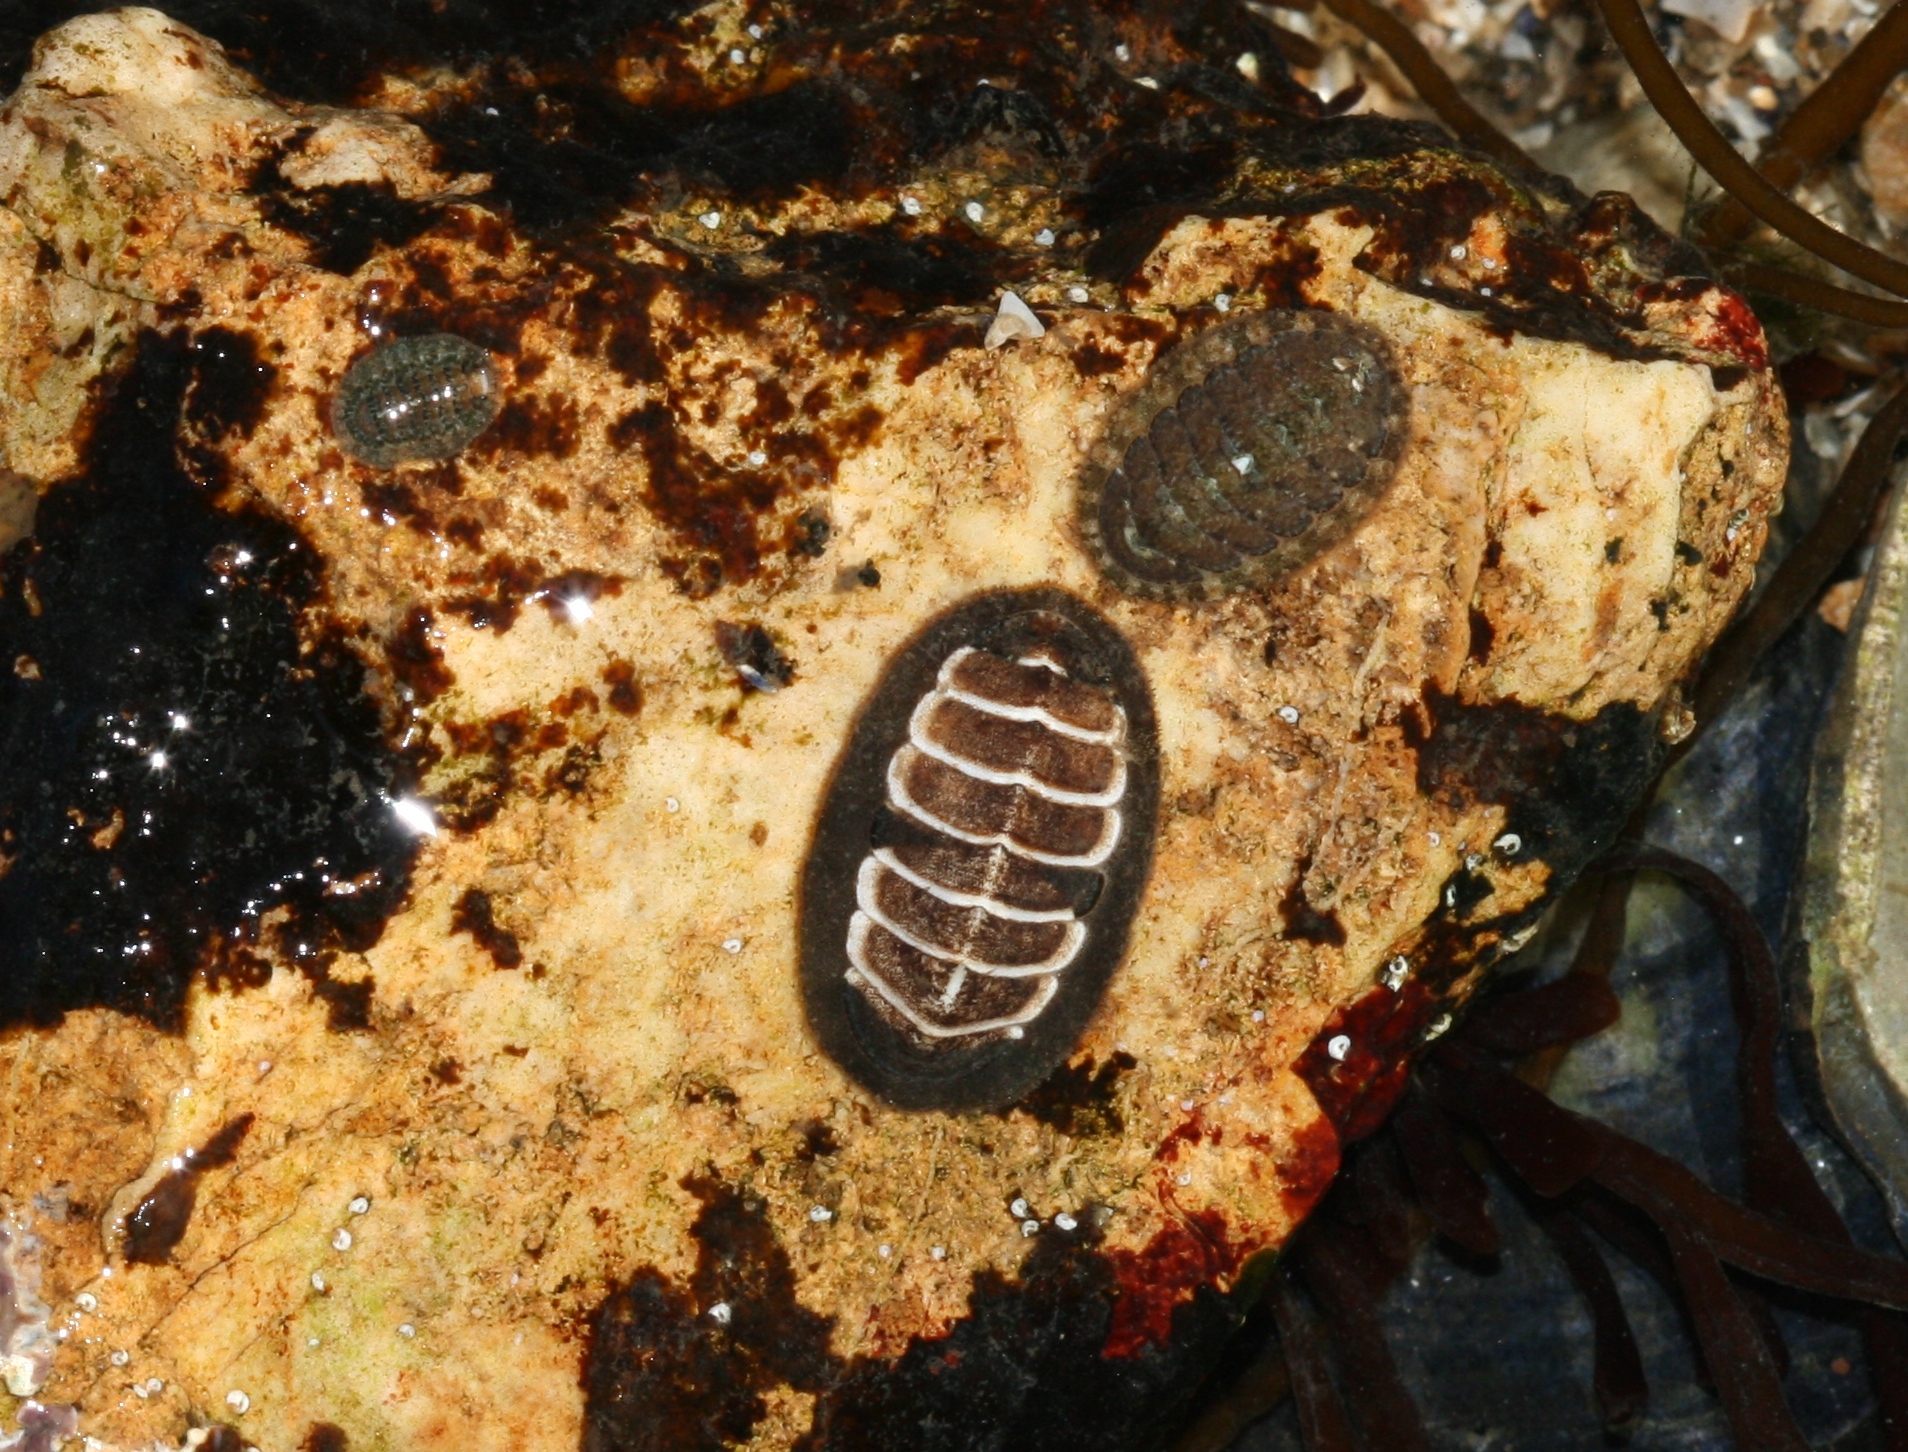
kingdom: Animalia
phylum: Mollusca
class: Polyplacophora
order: Chitonida
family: Tonicellidae
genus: Lepidochitona
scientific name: Lepidochitona cinerea
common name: Cinereous chiton
